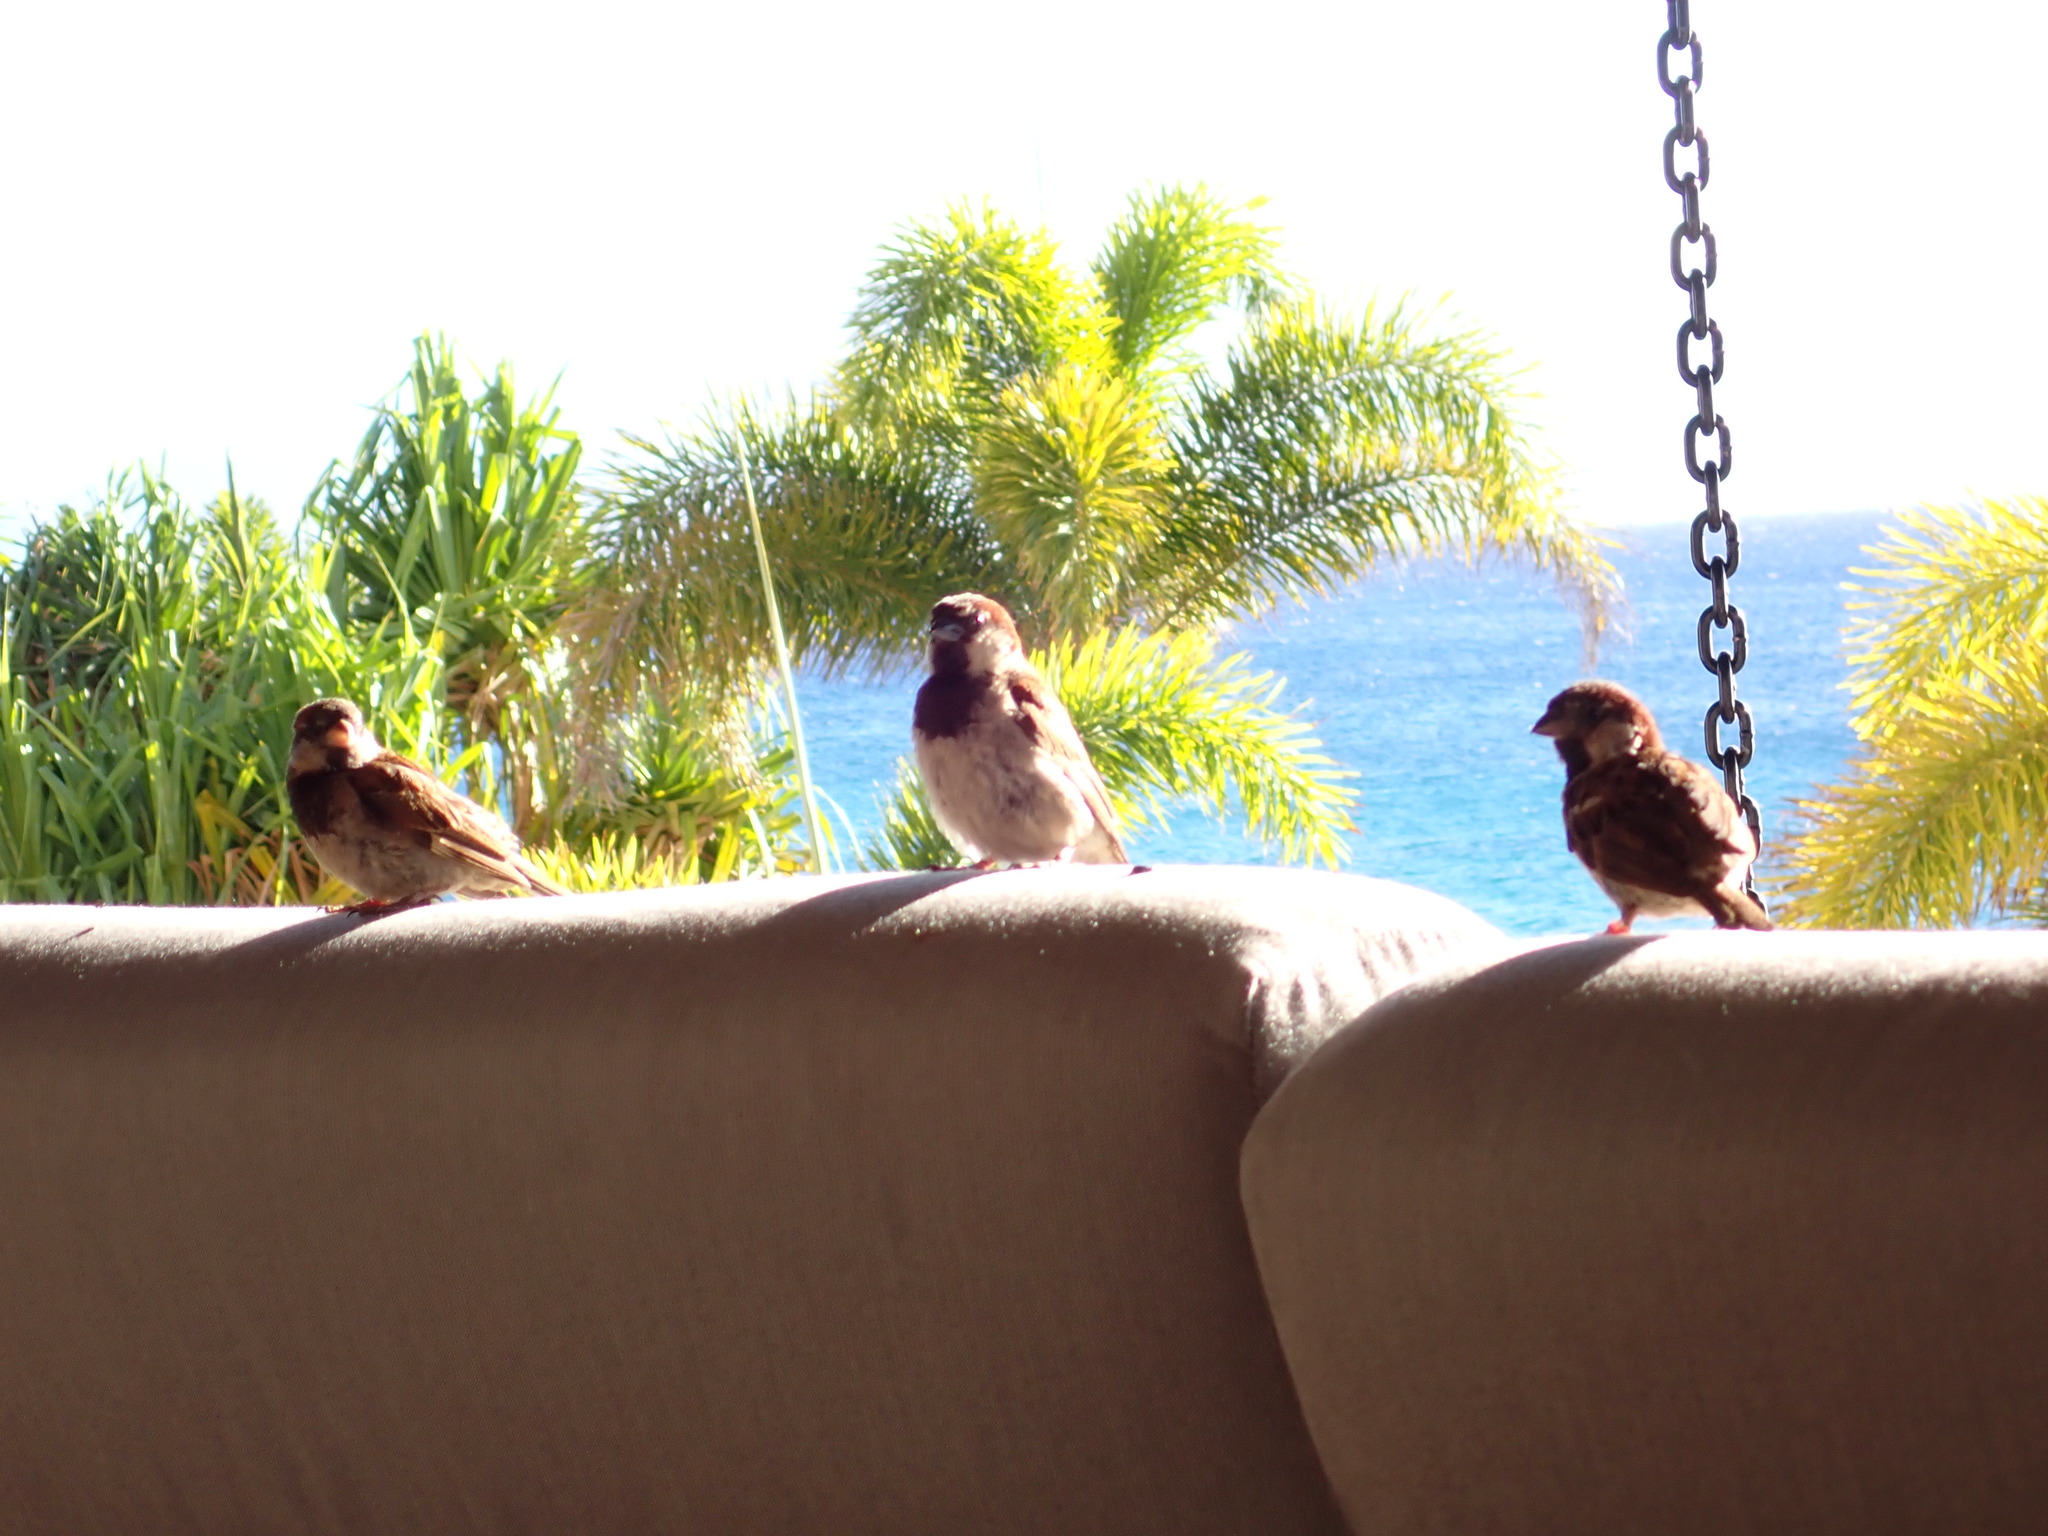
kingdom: Animalia
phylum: Chordata
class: Aves
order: Passeriformes
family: Passeridae
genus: Passer
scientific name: Passer domesticus
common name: House sparrow
